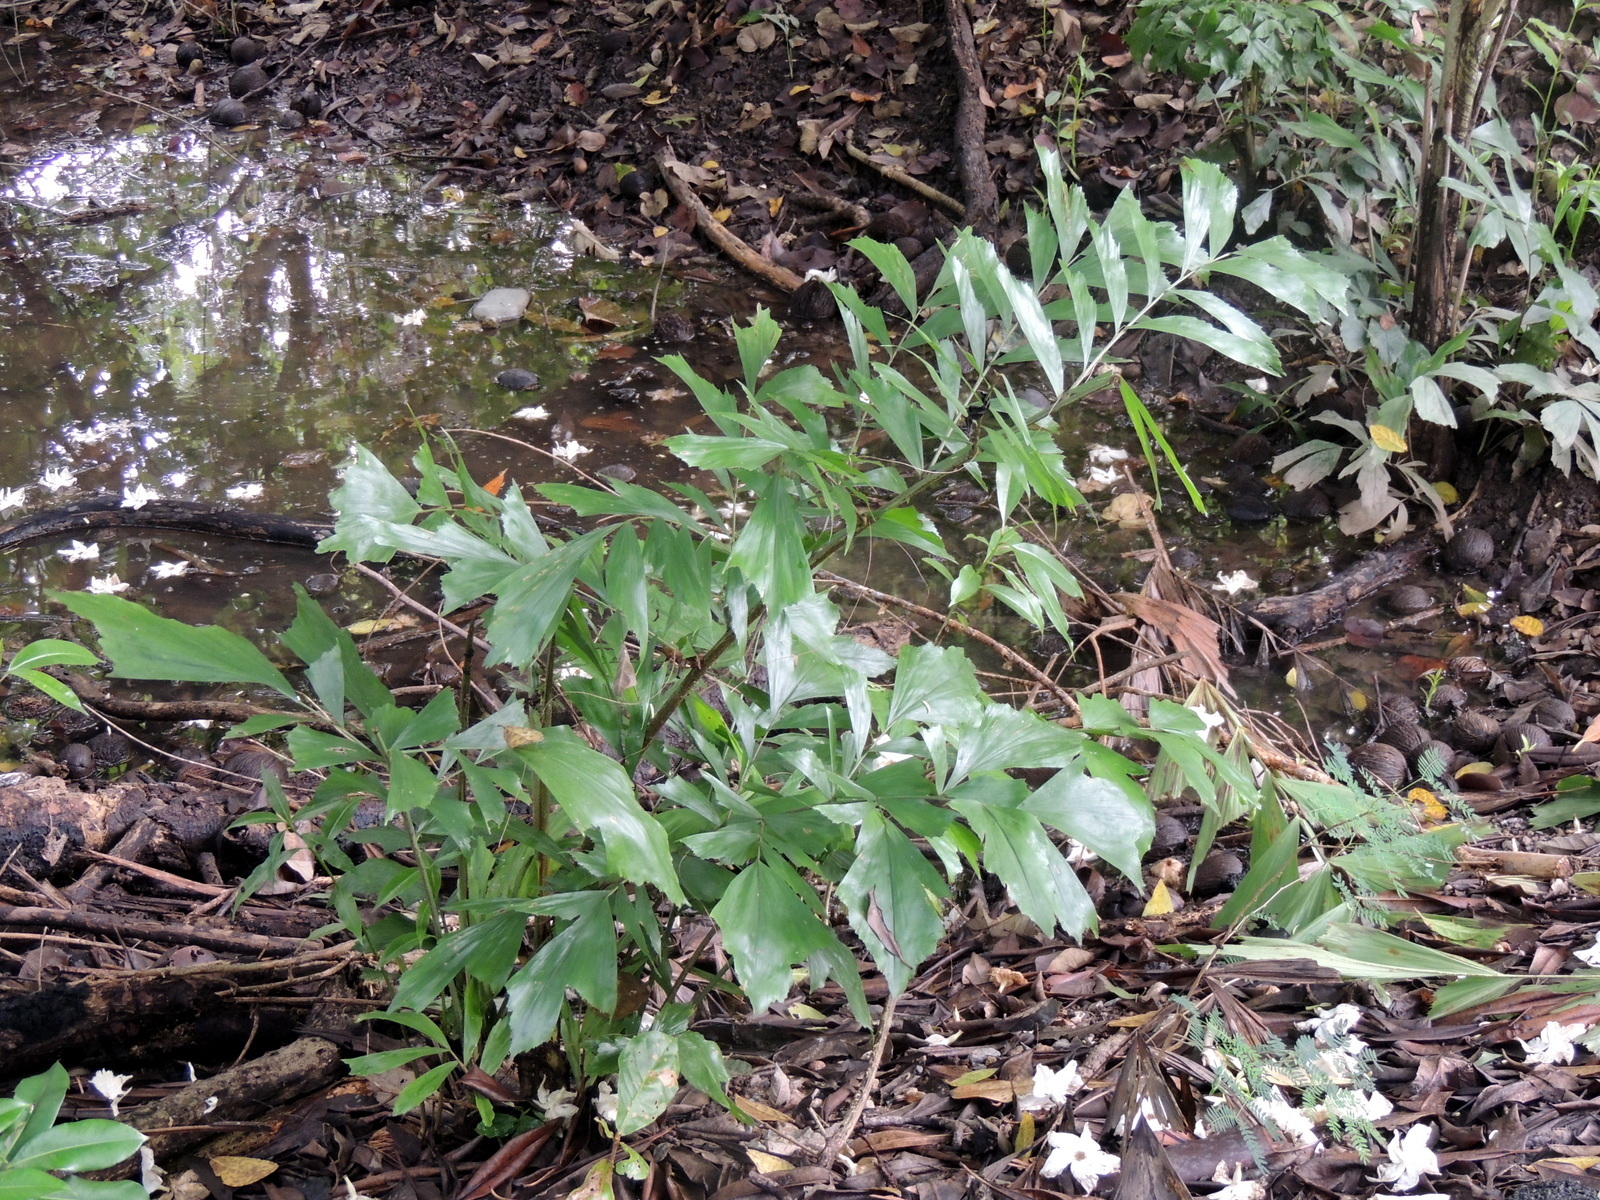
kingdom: Plantae
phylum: Tracheophyta
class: Liliopsida
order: Arecales
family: Arecaceae
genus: Caryota
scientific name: Caryota mitis
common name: Burmese fishtail palm
